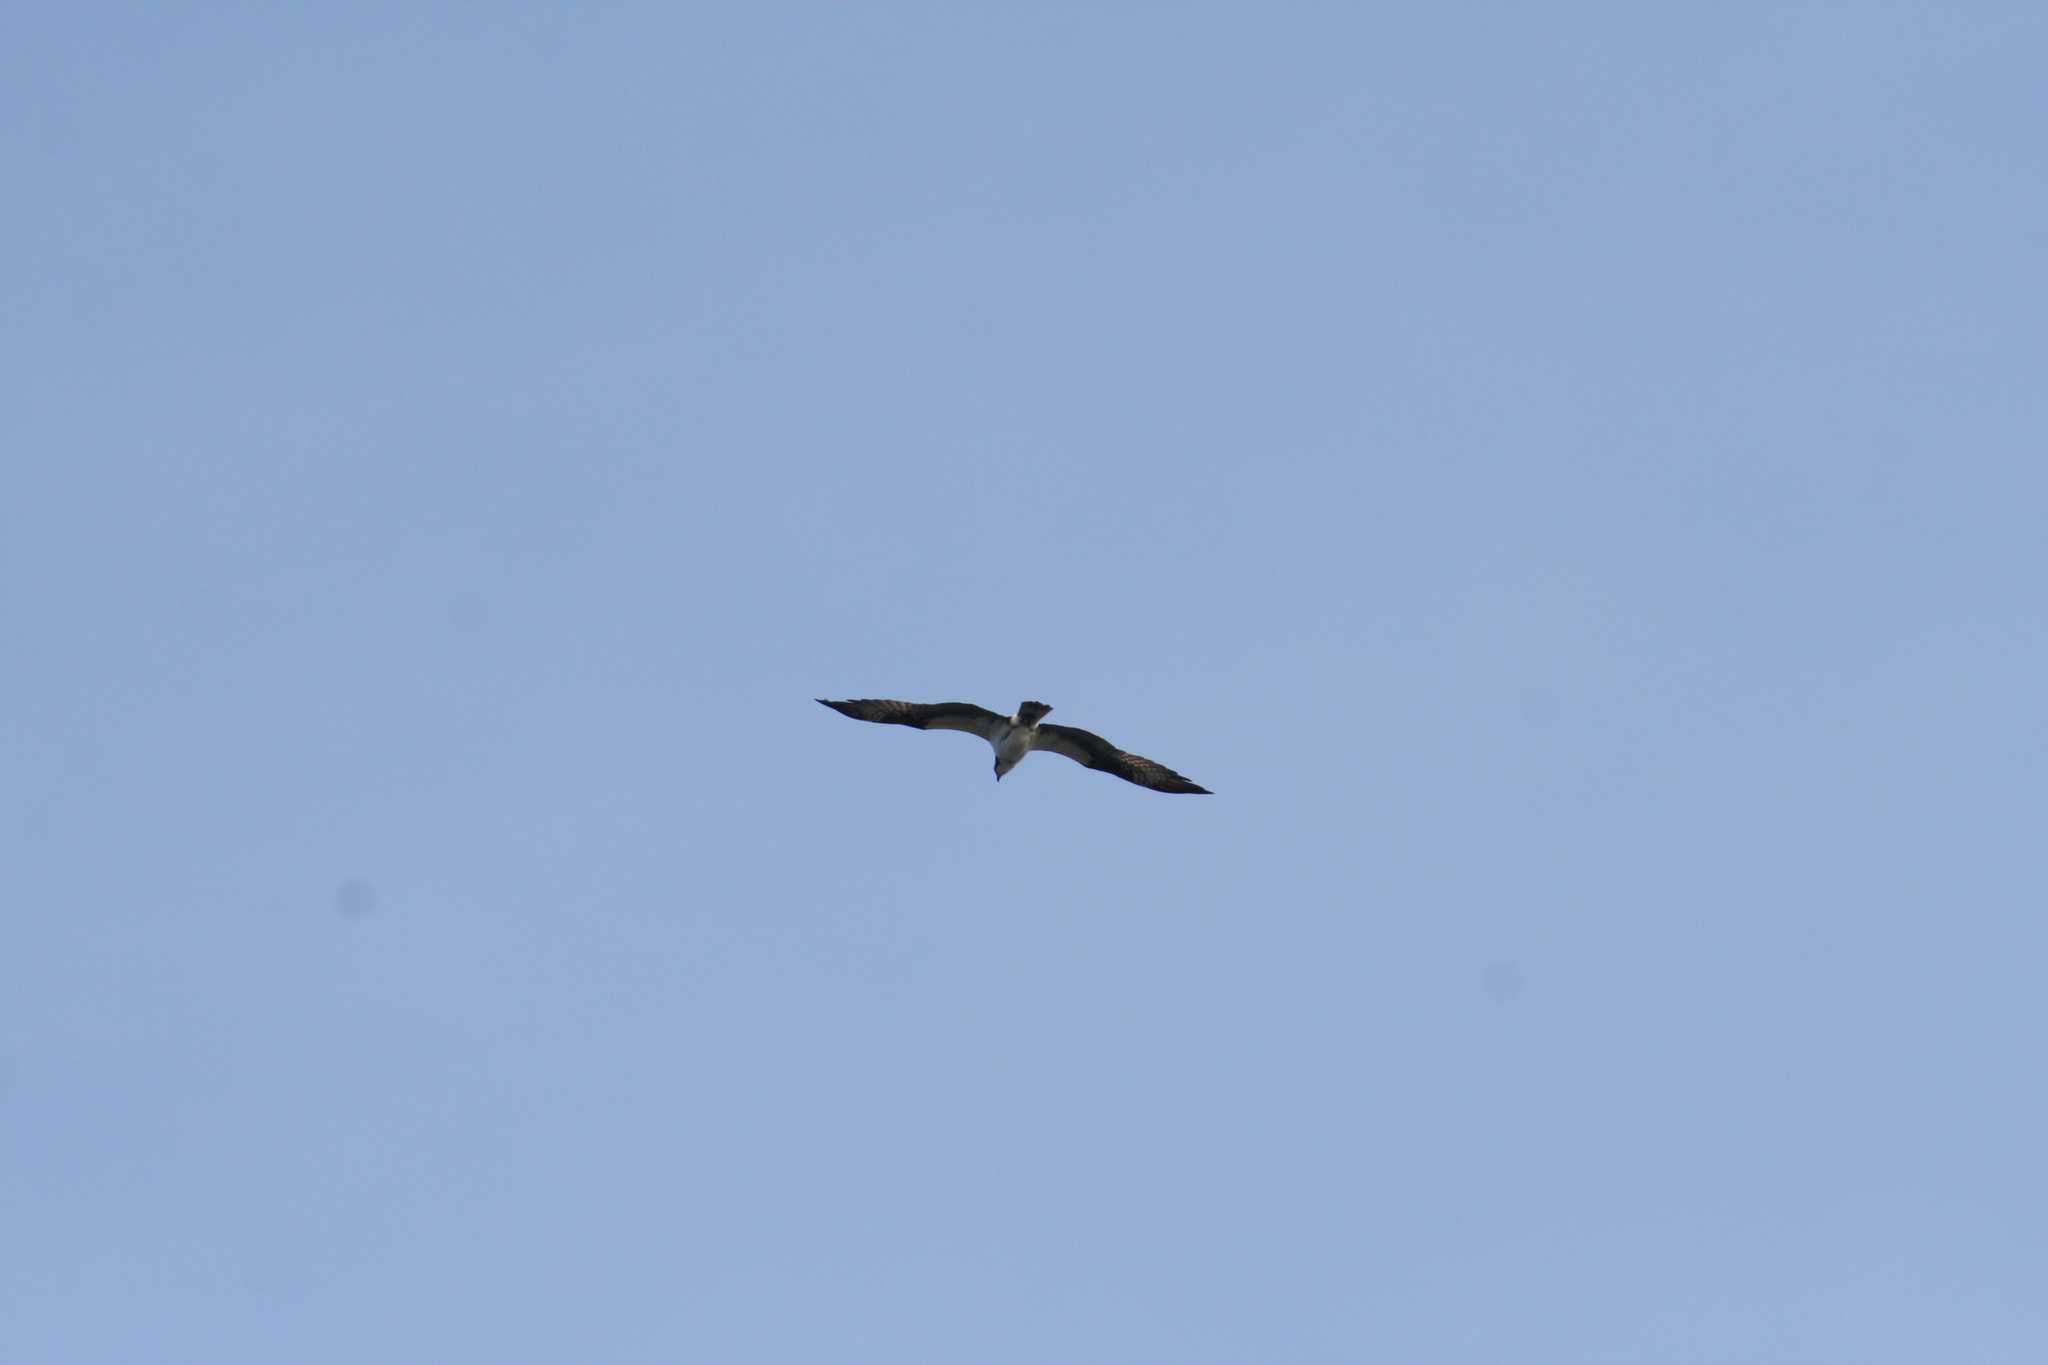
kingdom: Animalia
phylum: Chordata
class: Aves
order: Accipitriformes
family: Pandionidae
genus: Pandion
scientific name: Pandion haliaetus
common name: Osprey
